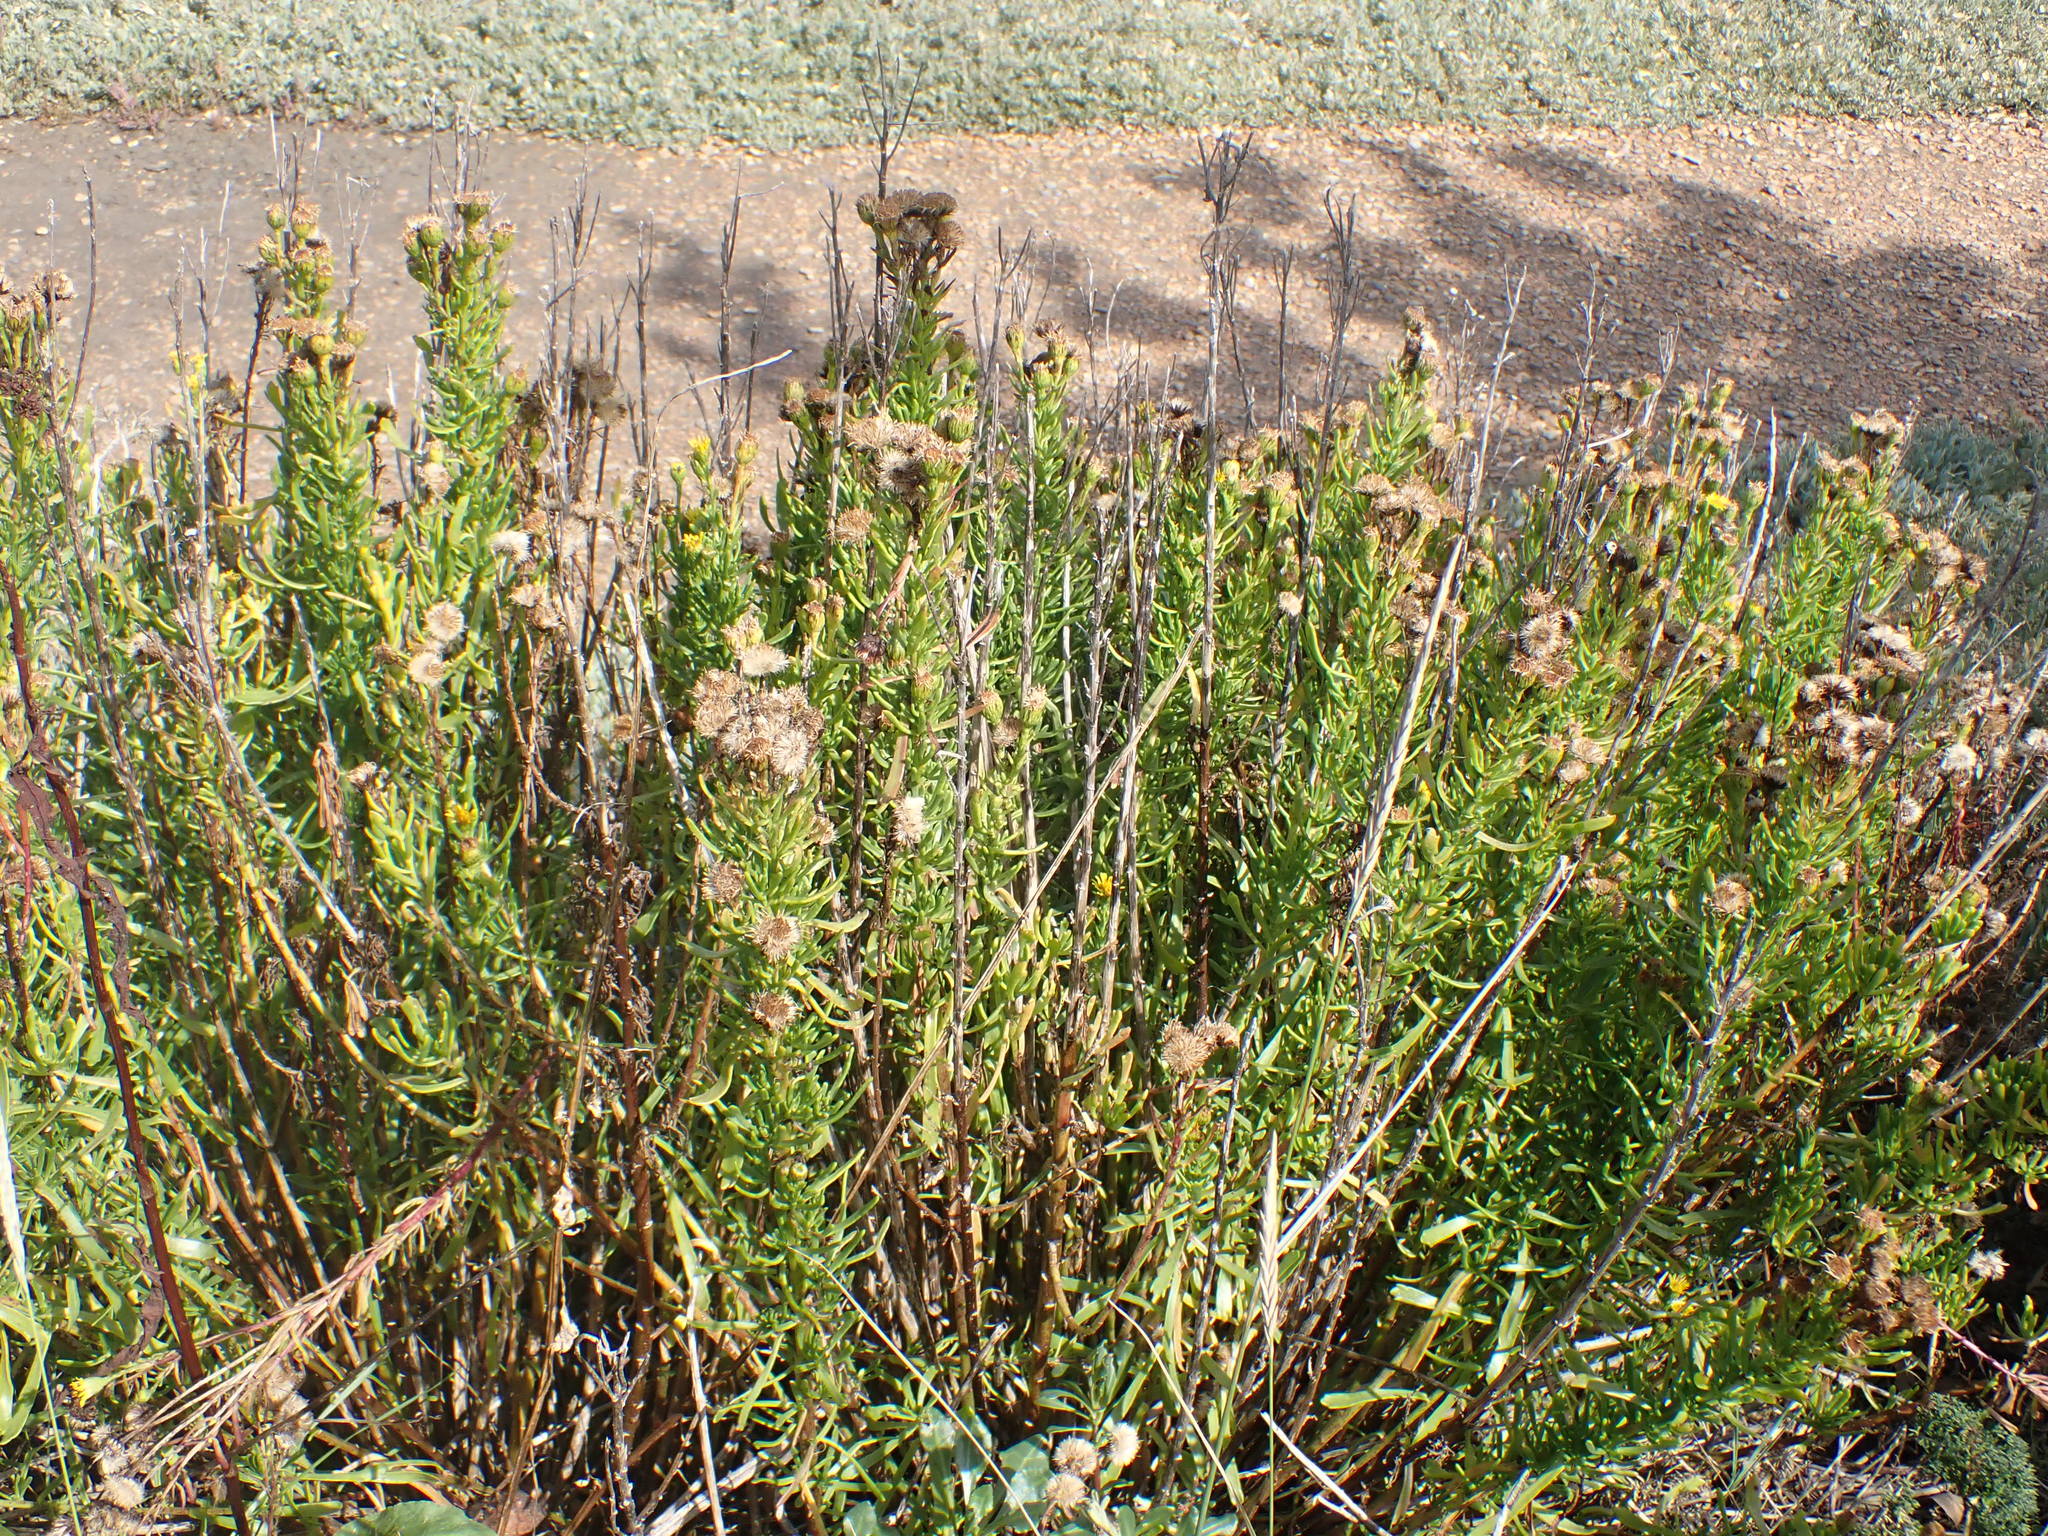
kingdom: Plantae
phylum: Tracheophyta
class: Magnoliopsida
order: Asterales
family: Asteraceae
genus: Limbarda
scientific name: Limbarda crithmoides
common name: Golden samphire
